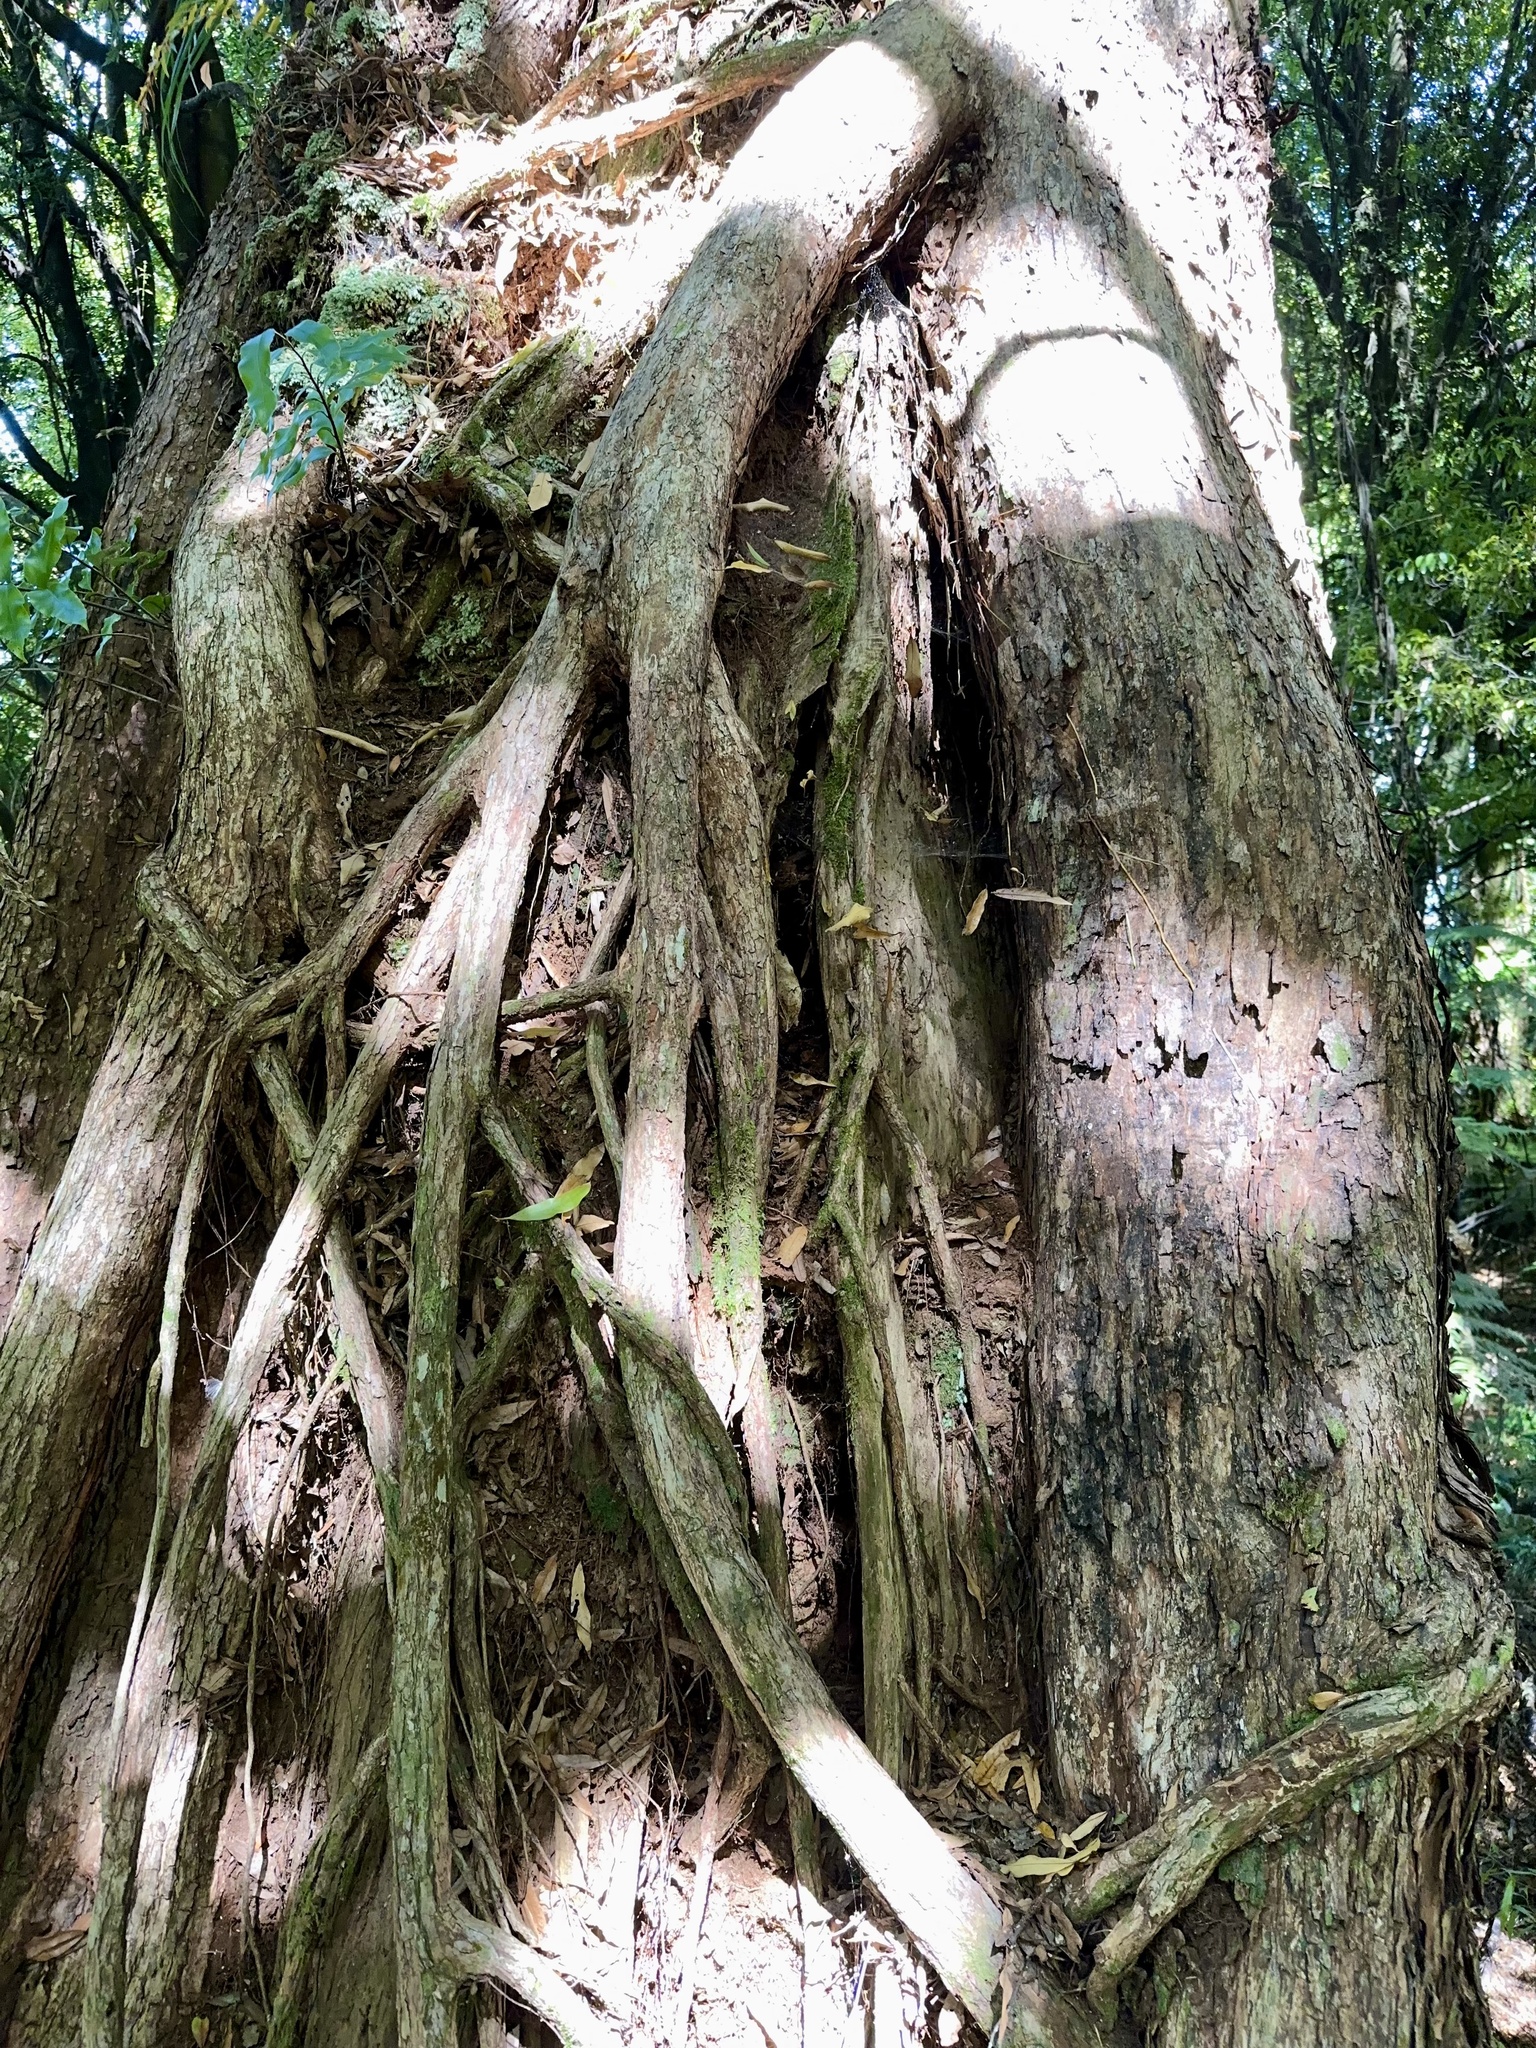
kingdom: Plantae
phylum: Tracheophyta
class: Magnoliopsida
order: Myrtales
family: Myrtaceae
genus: Metrosideros
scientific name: Metrosideros robusta
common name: Northern rata
